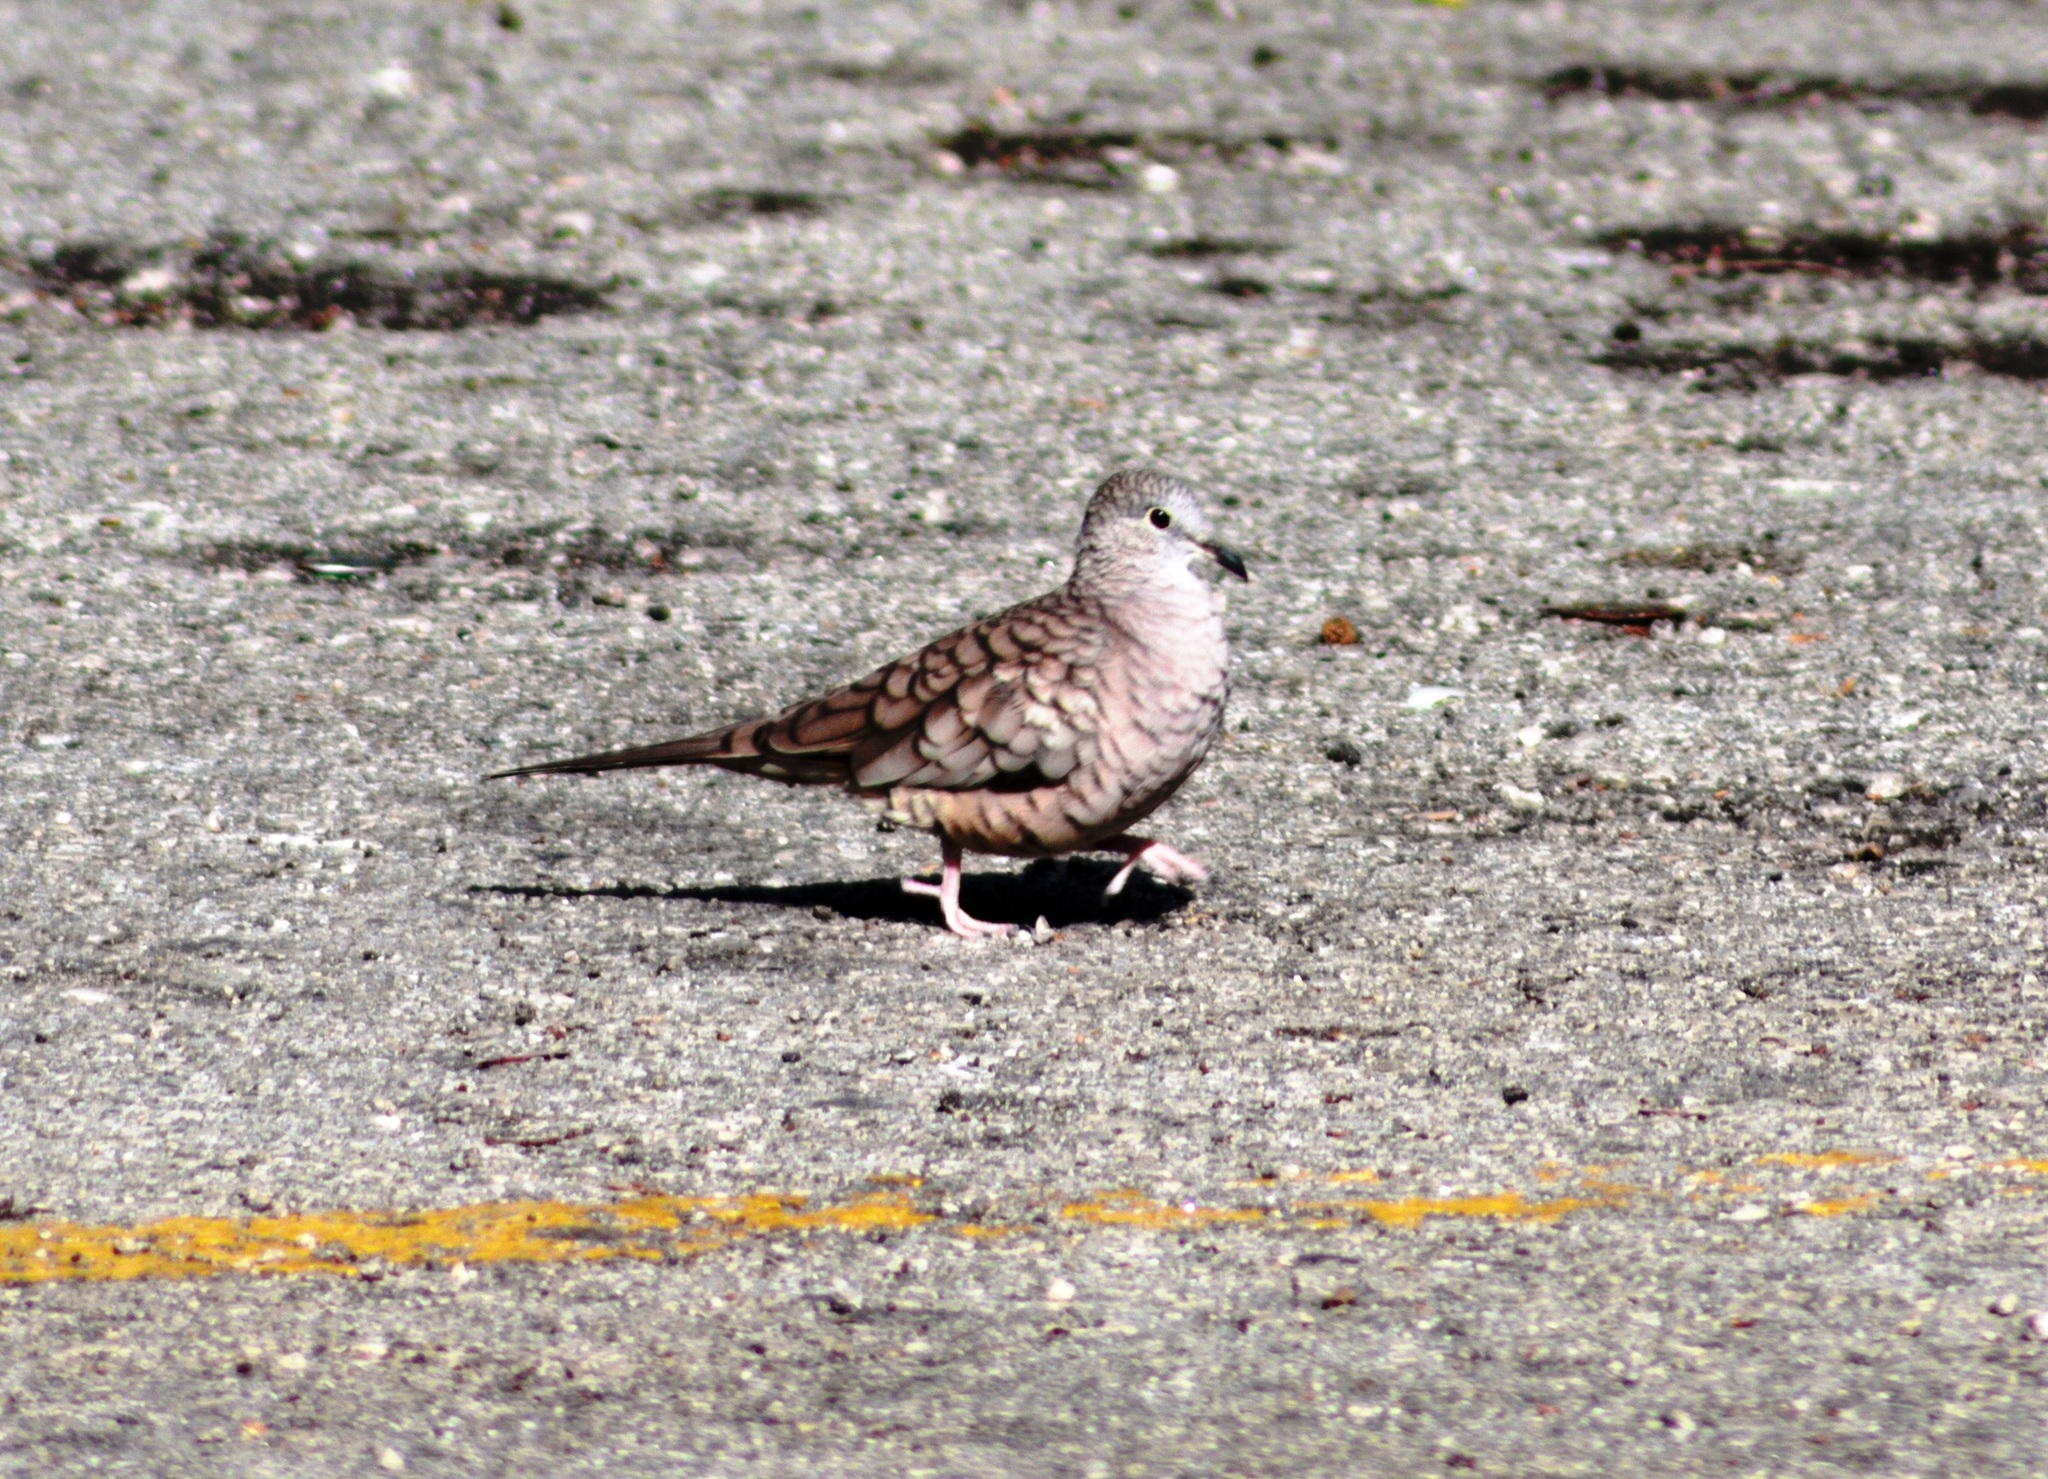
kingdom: Animalia
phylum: Chordata
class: Aves
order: Columbiformes
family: Columbidae
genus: Columbina
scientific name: Columbina inca
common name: Inca dove
